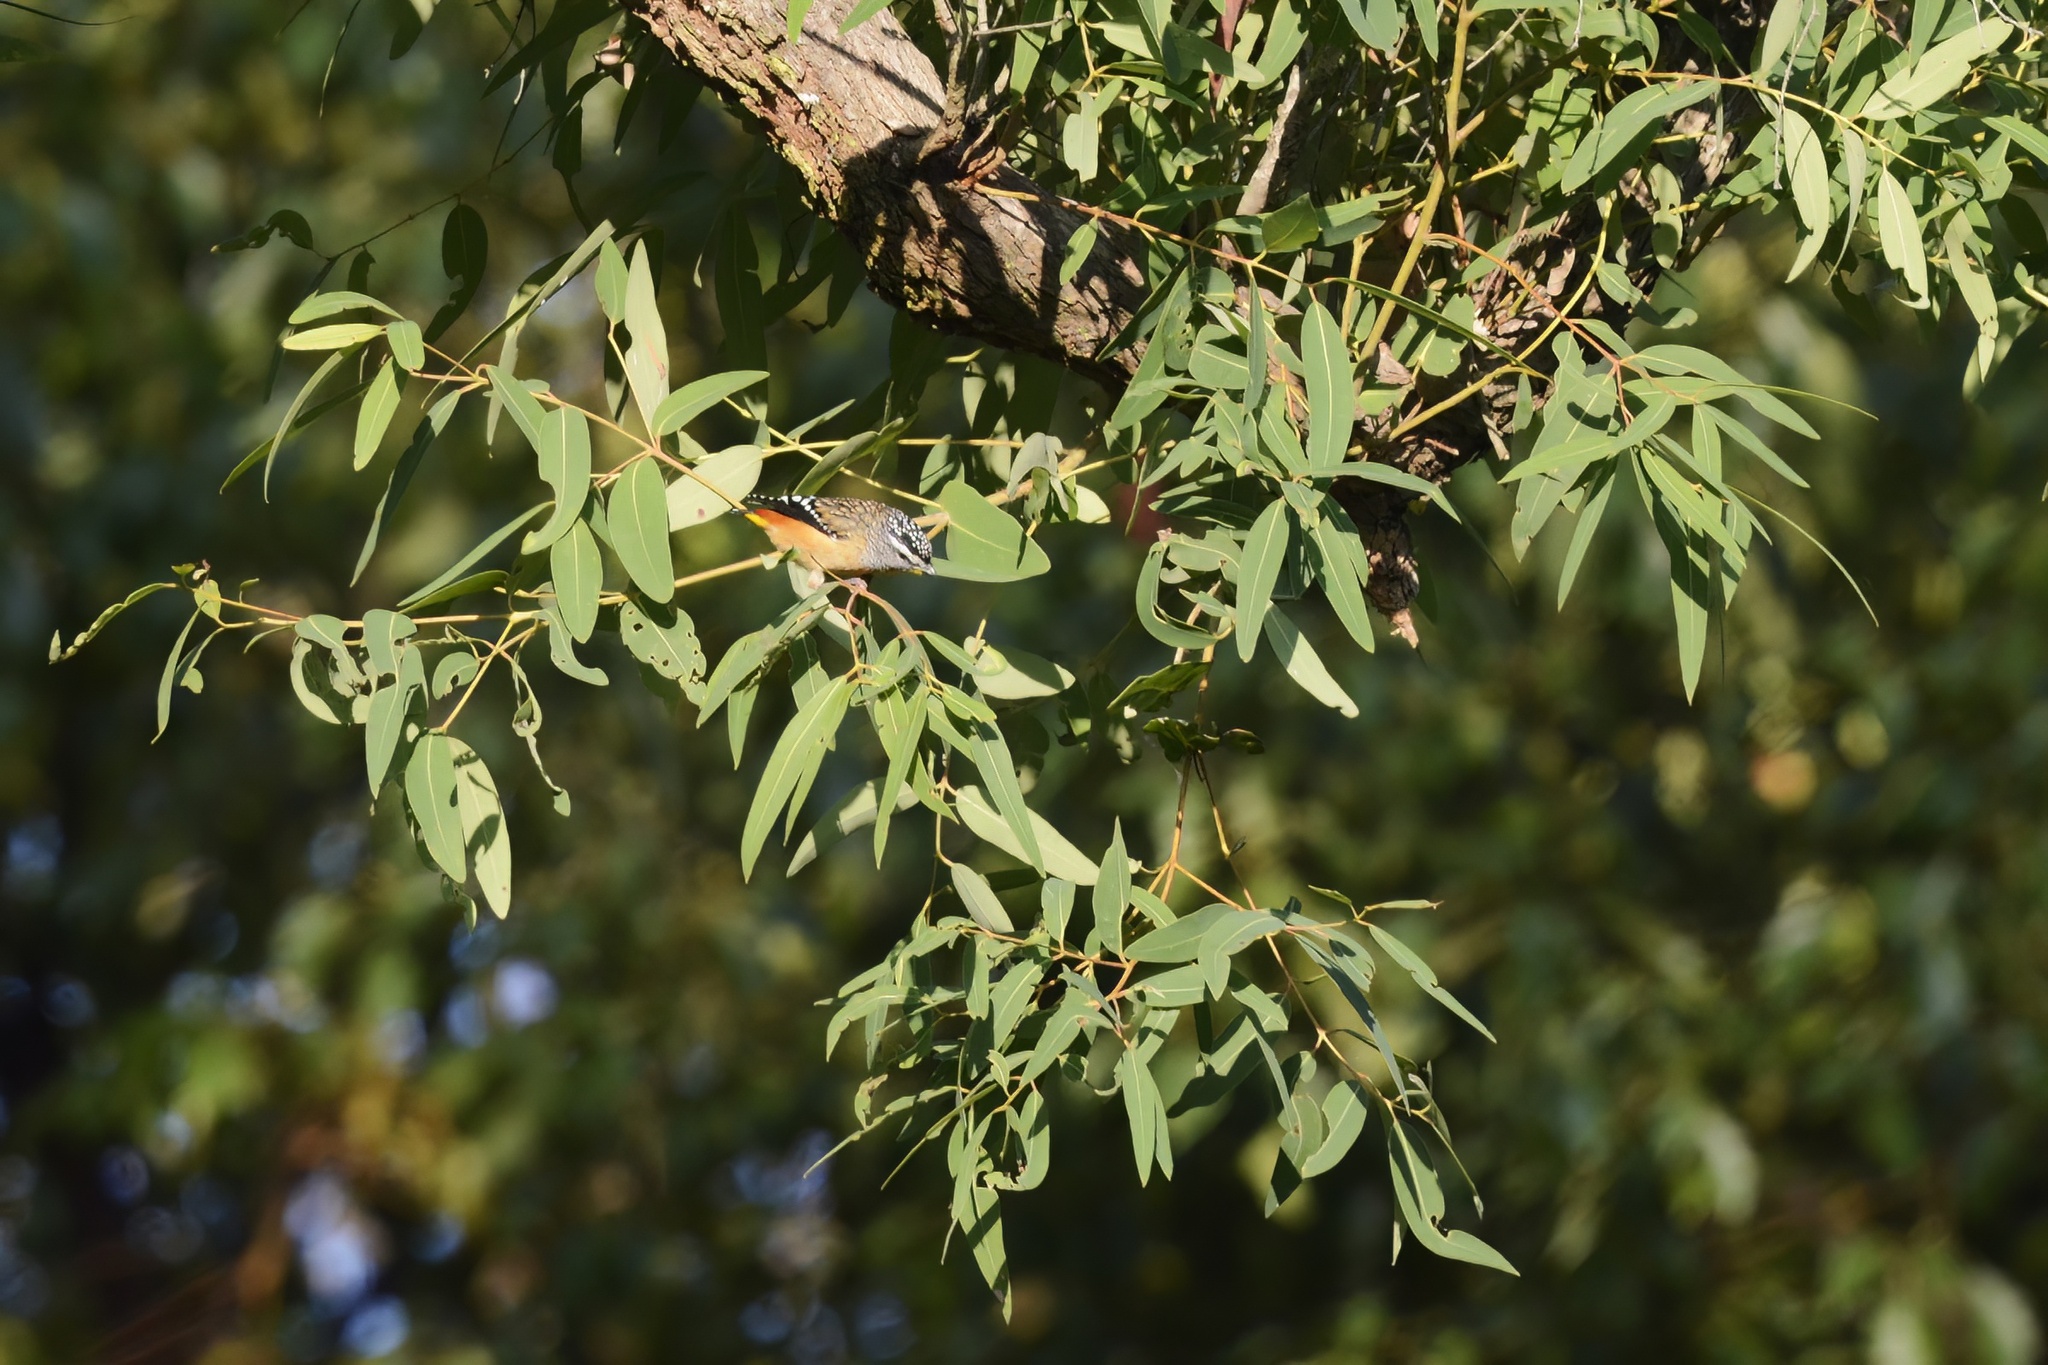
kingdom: Animalia
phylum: Chordata
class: Aves
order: Passeriformes
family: Pardalotidae
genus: Pardalotus
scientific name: Pardalotus punctatus
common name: Spotted pardalote
